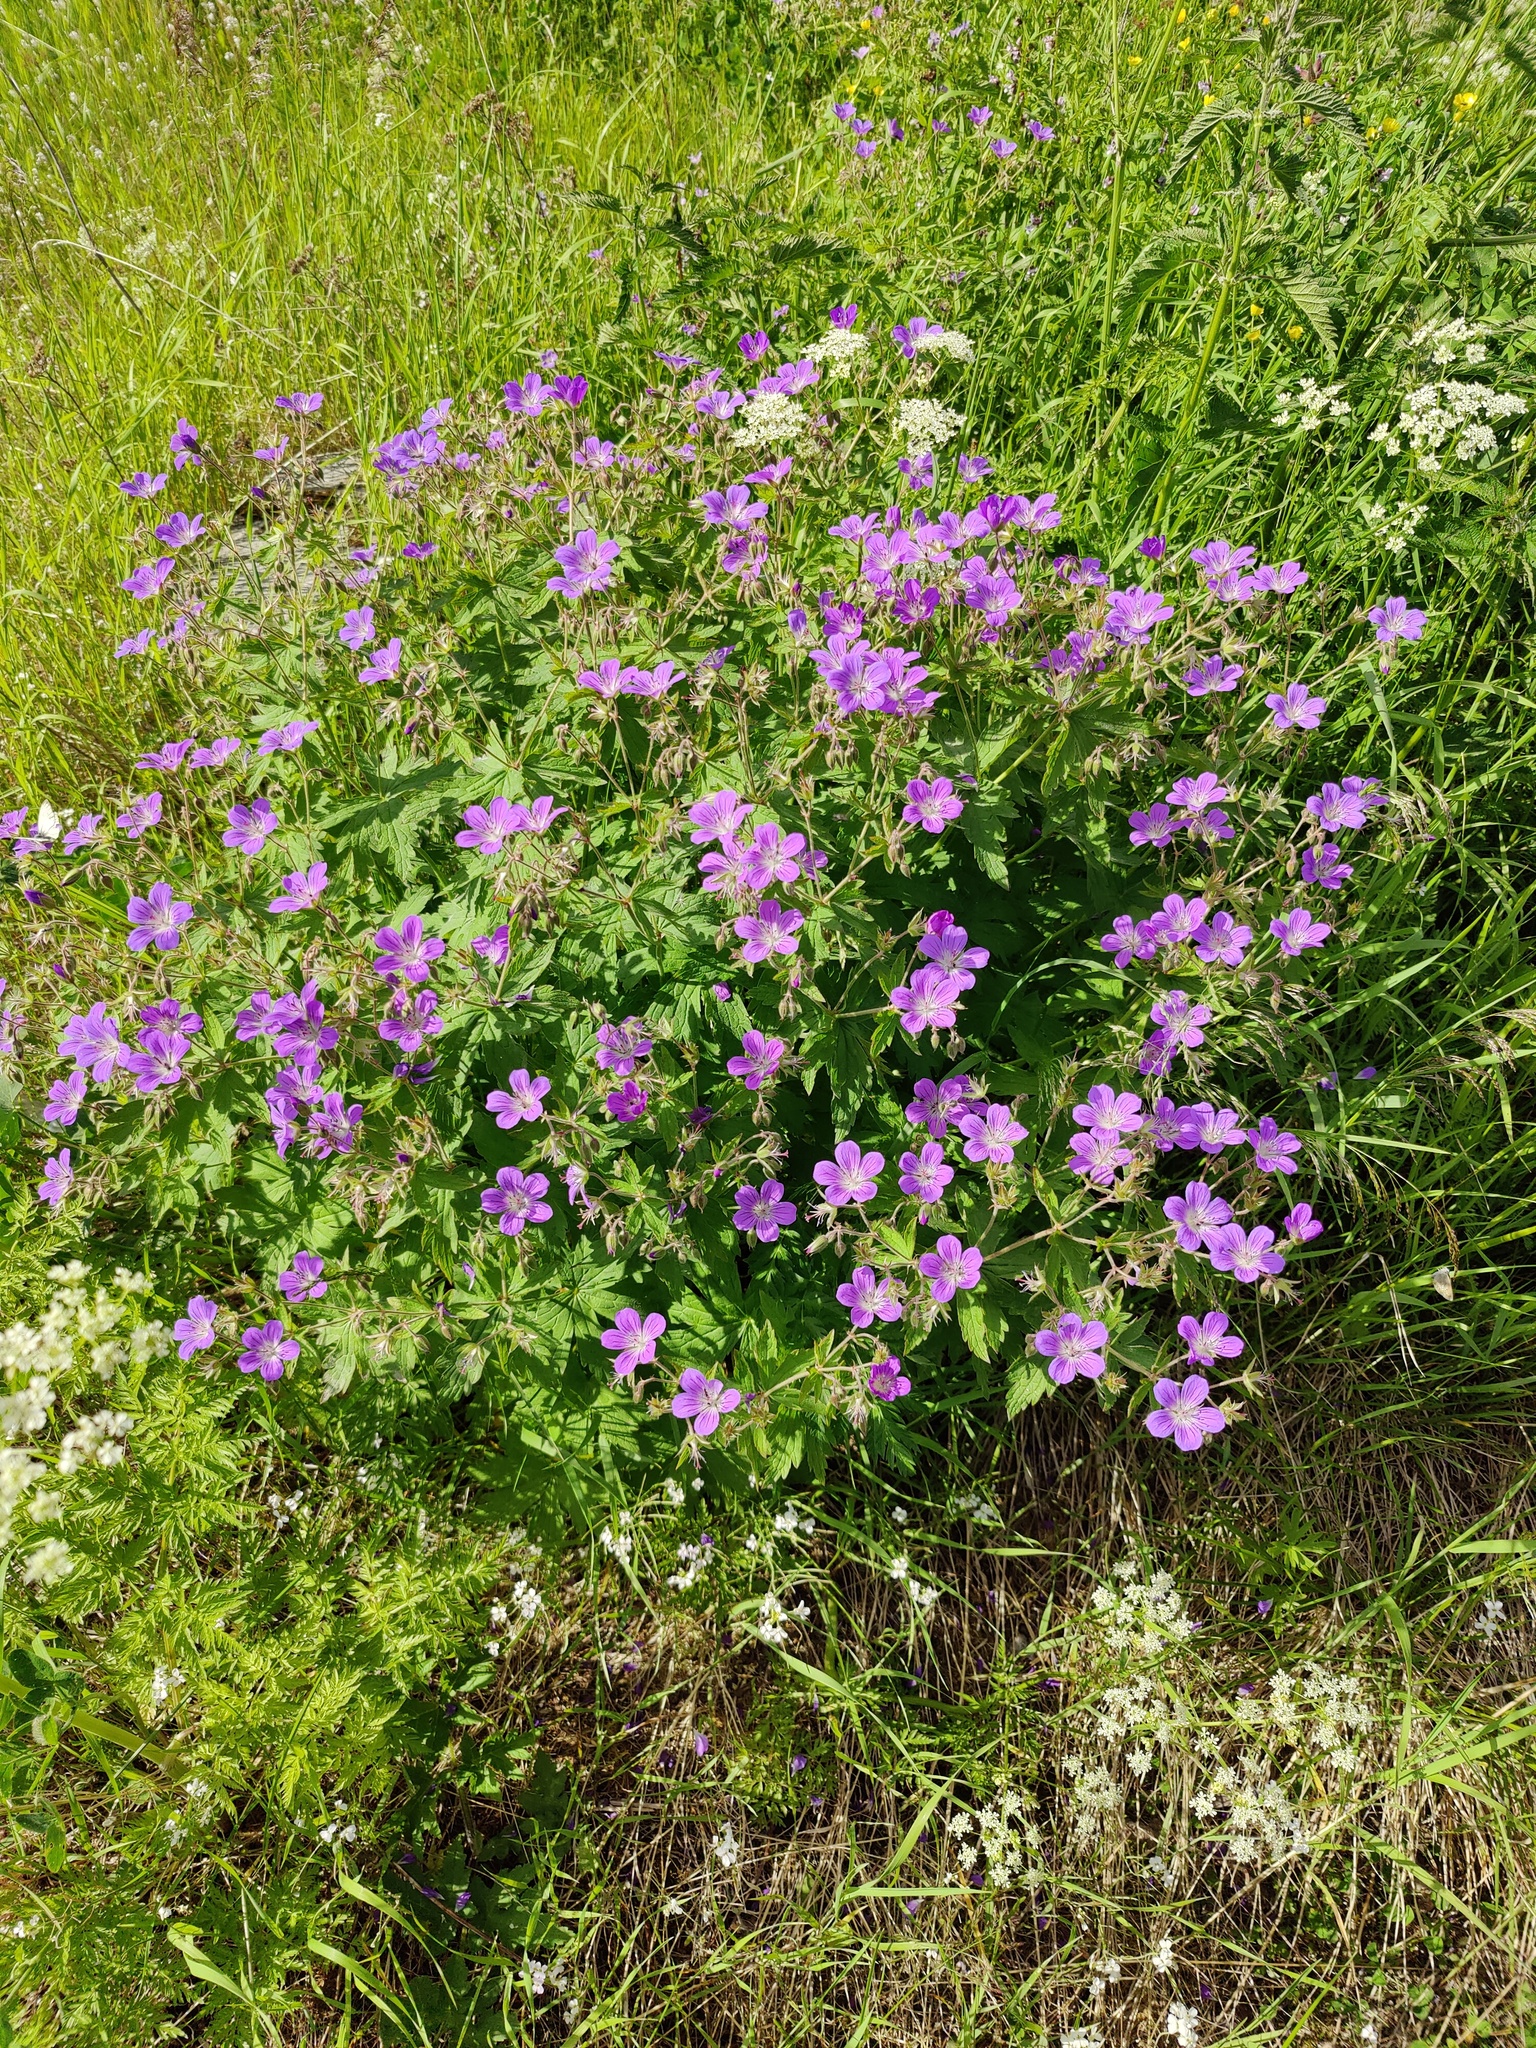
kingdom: Plantae
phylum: Tracheophyta
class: Magnoliopsida
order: Geraniales
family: Geraniaceae
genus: Geranium
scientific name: Geranium sylvaticum
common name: Wood crane's-bill
